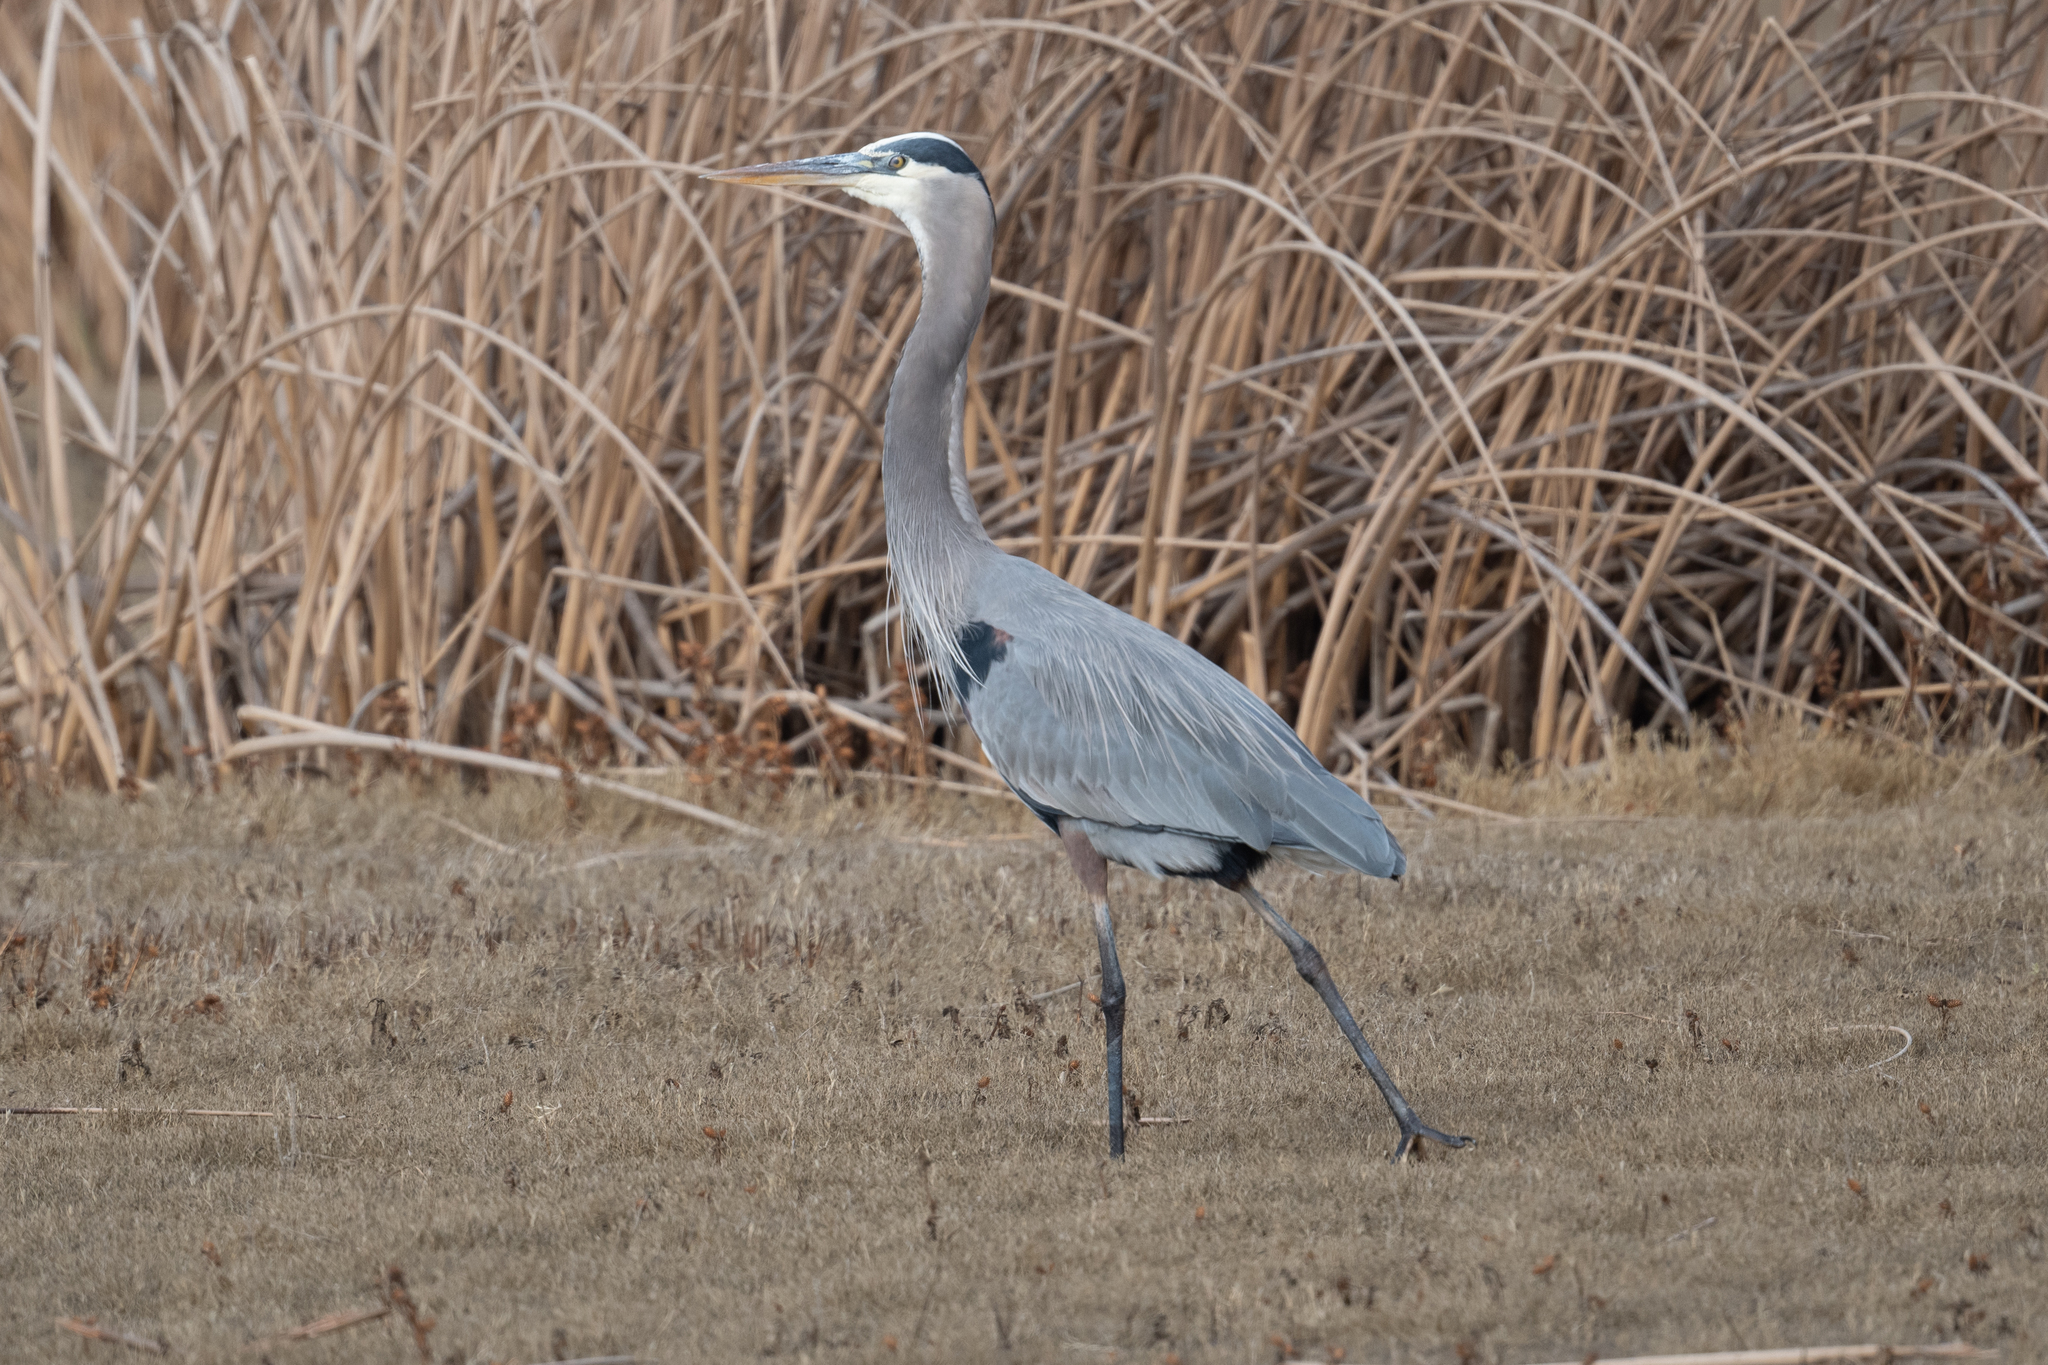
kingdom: Animalia
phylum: Chordata
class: Aves
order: Pelecaniformes
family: Ardeidae
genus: Ardea
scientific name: Ardea herodias
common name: Great blue heron
